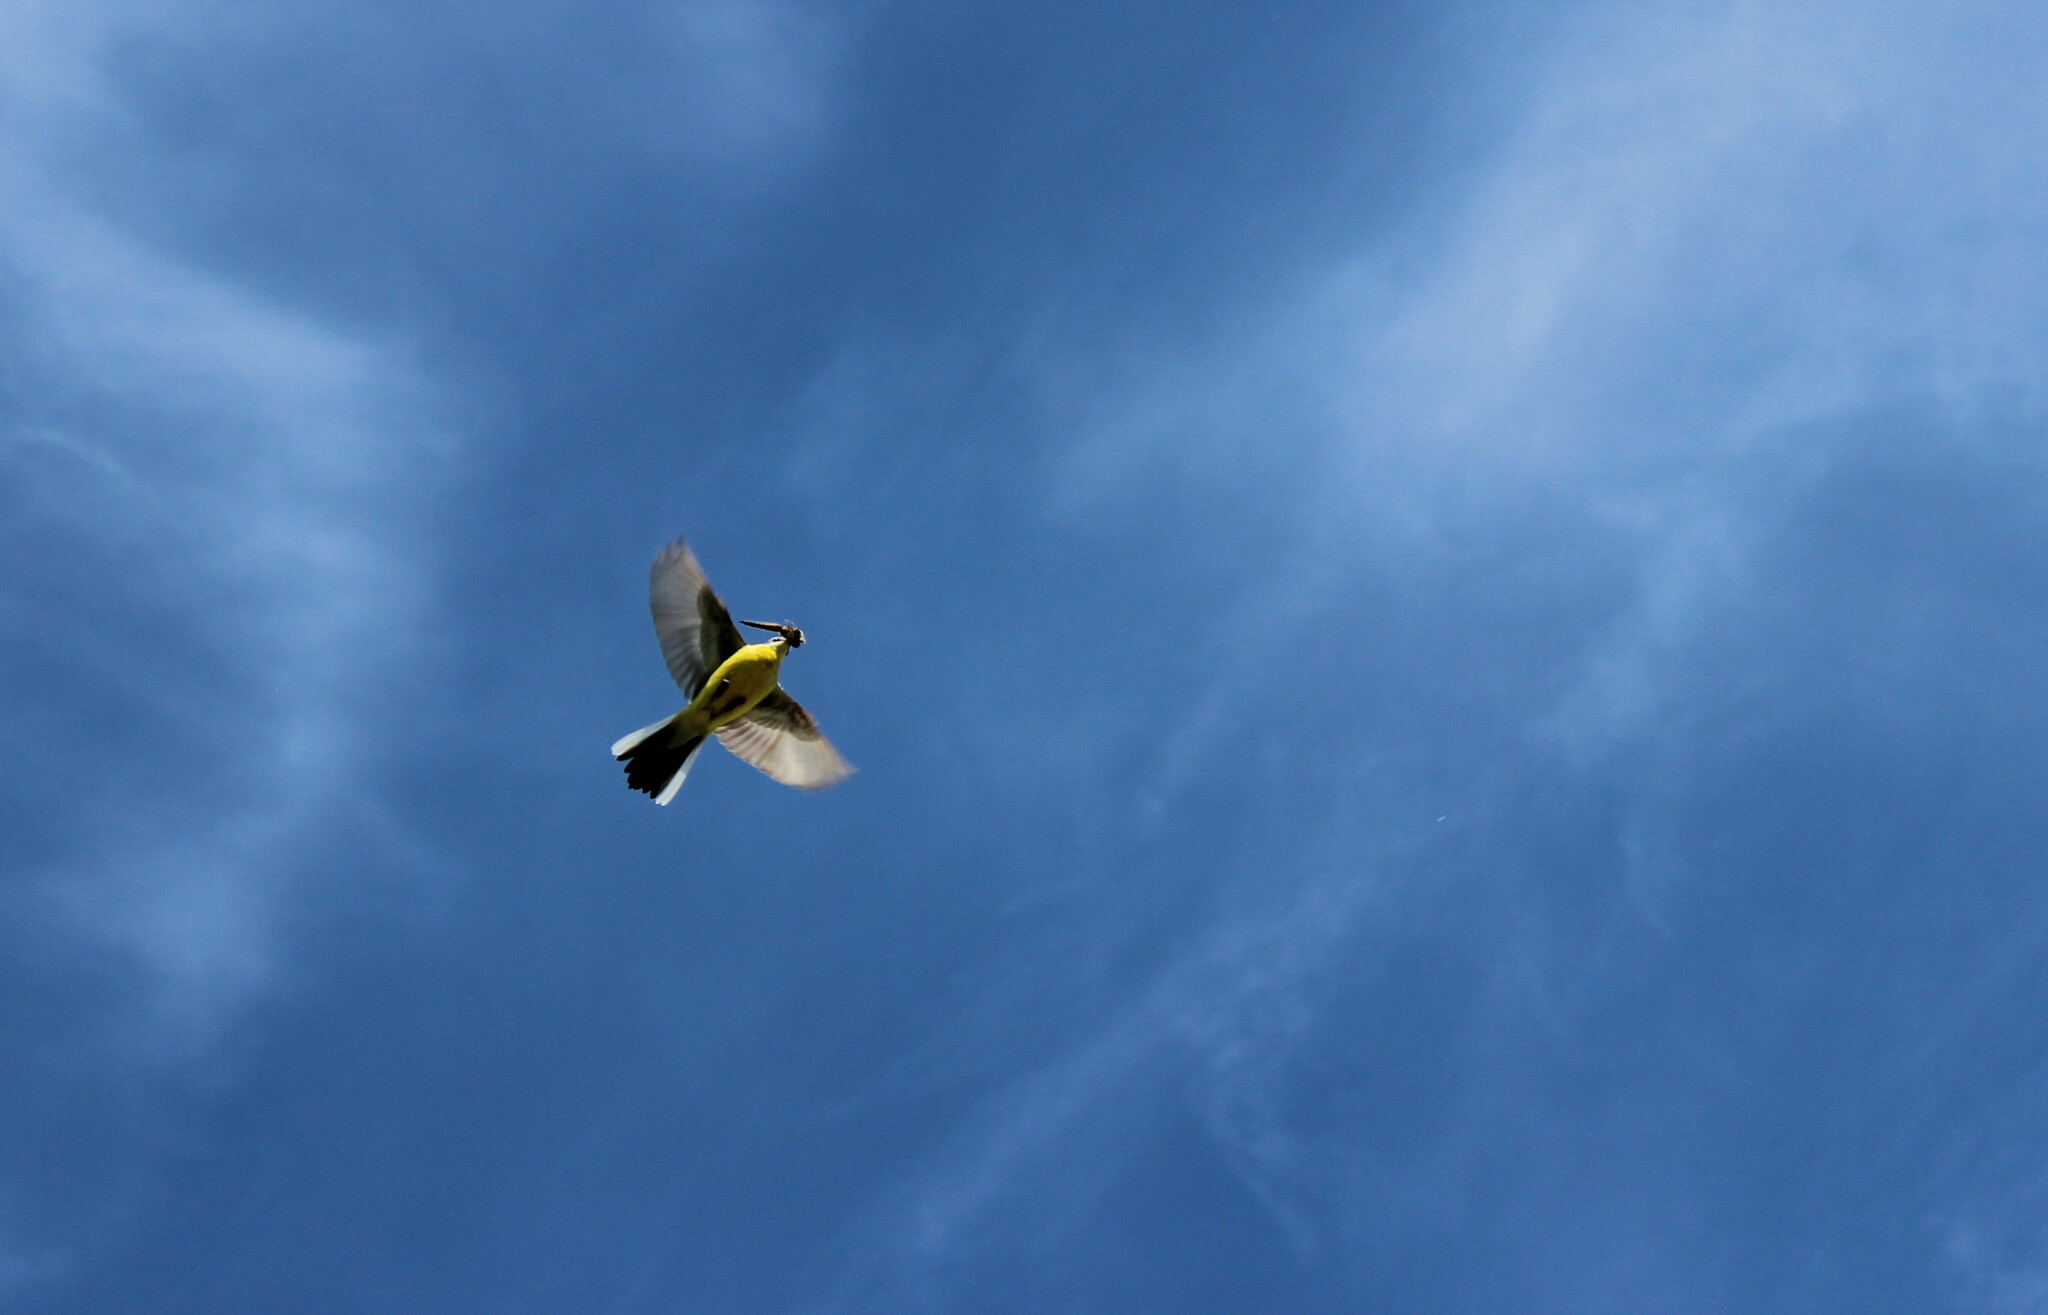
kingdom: Animalia
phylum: Chordata
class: Aves
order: Passeriformes
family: Motacillidae
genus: Motacilla
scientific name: Motacilla flava
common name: Western yellow wagtail
